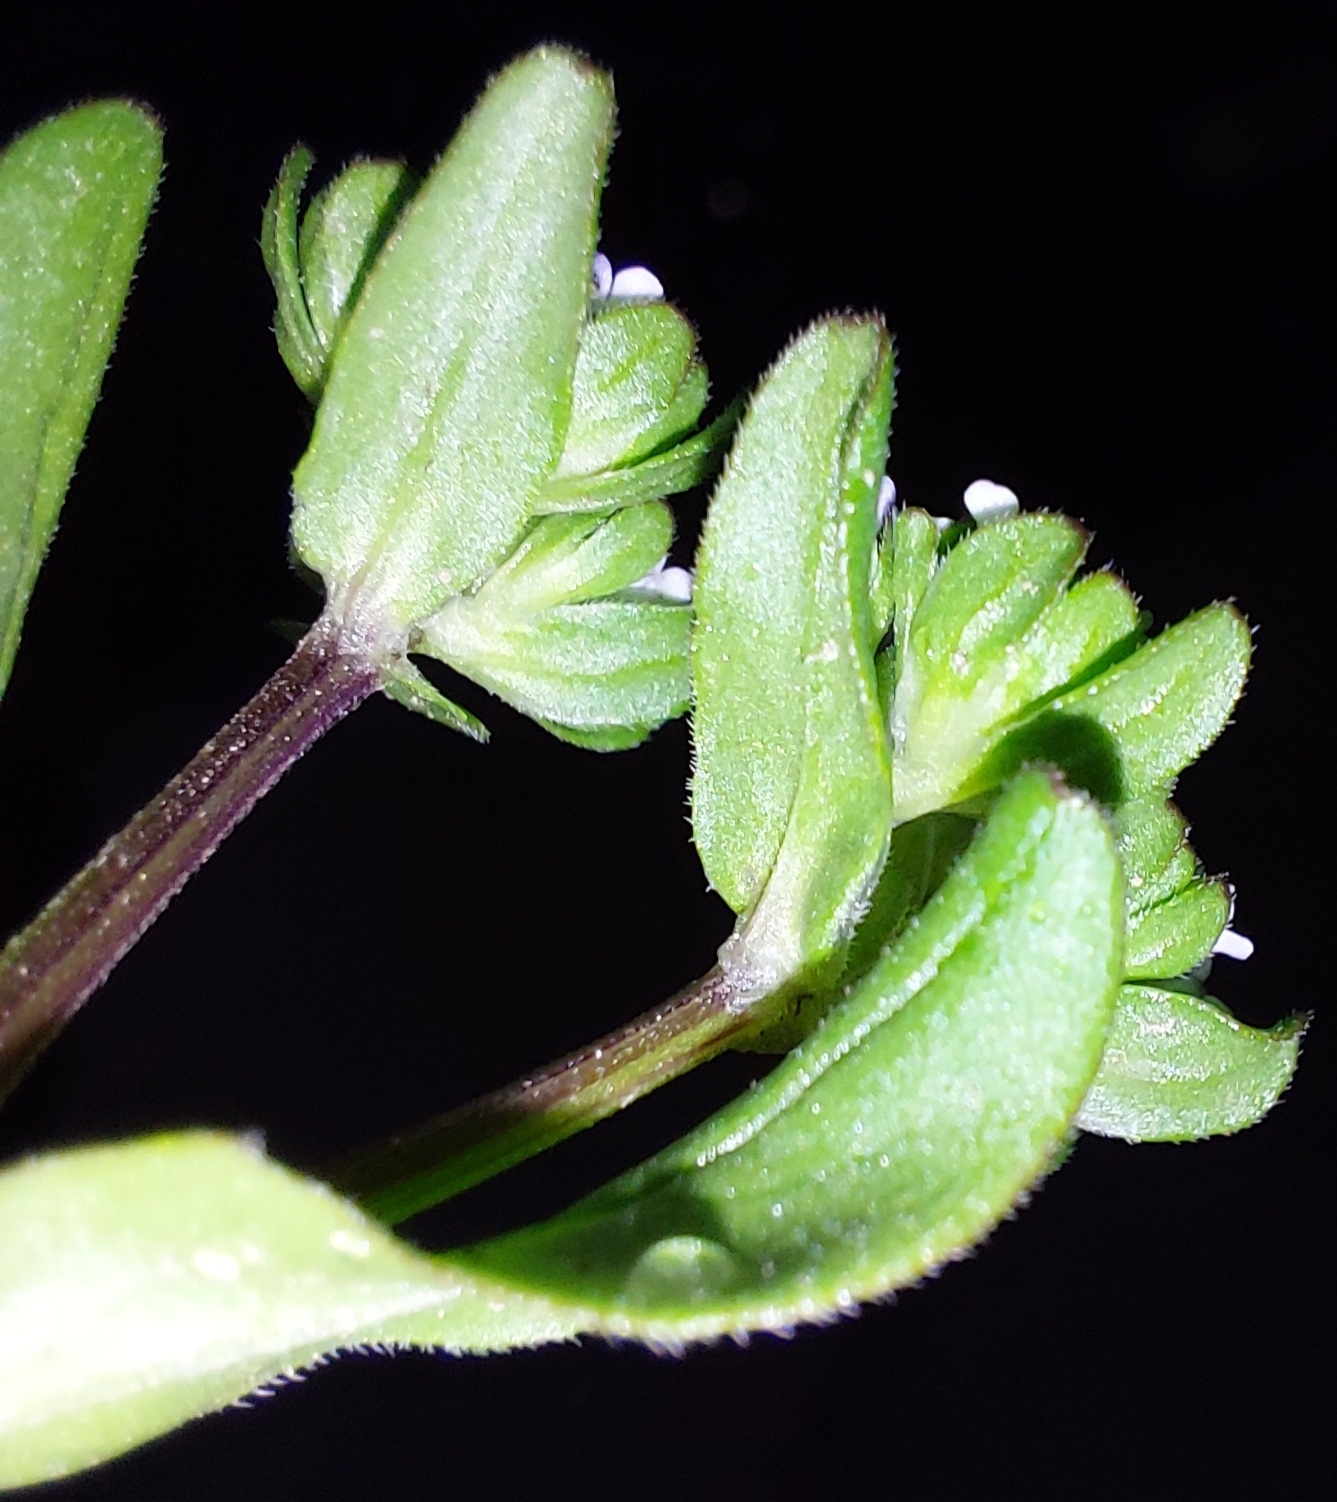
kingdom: Plantae
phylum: Tracheophyta
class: Magnoliopsida
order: Dipsacales
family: Caprifoliaceae
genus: Valerianella
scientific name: Valerianella locusta
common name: Common cornsalad
